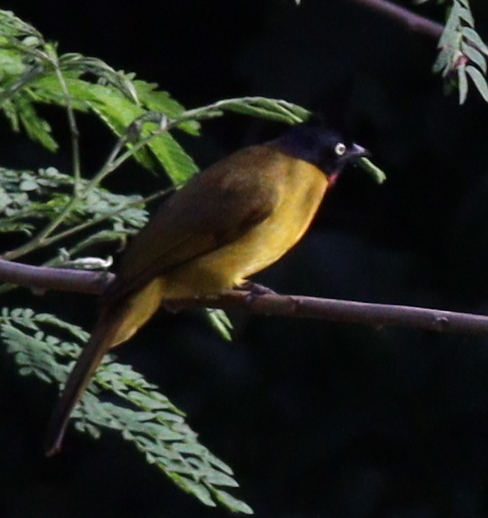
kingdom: Animalia
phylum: Chordata
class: Aves
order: Passeriformes
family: Pycnonotidae
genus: Pycnonotus
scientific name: Pycnonotus flaviventris
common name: Black-crested bulbul
